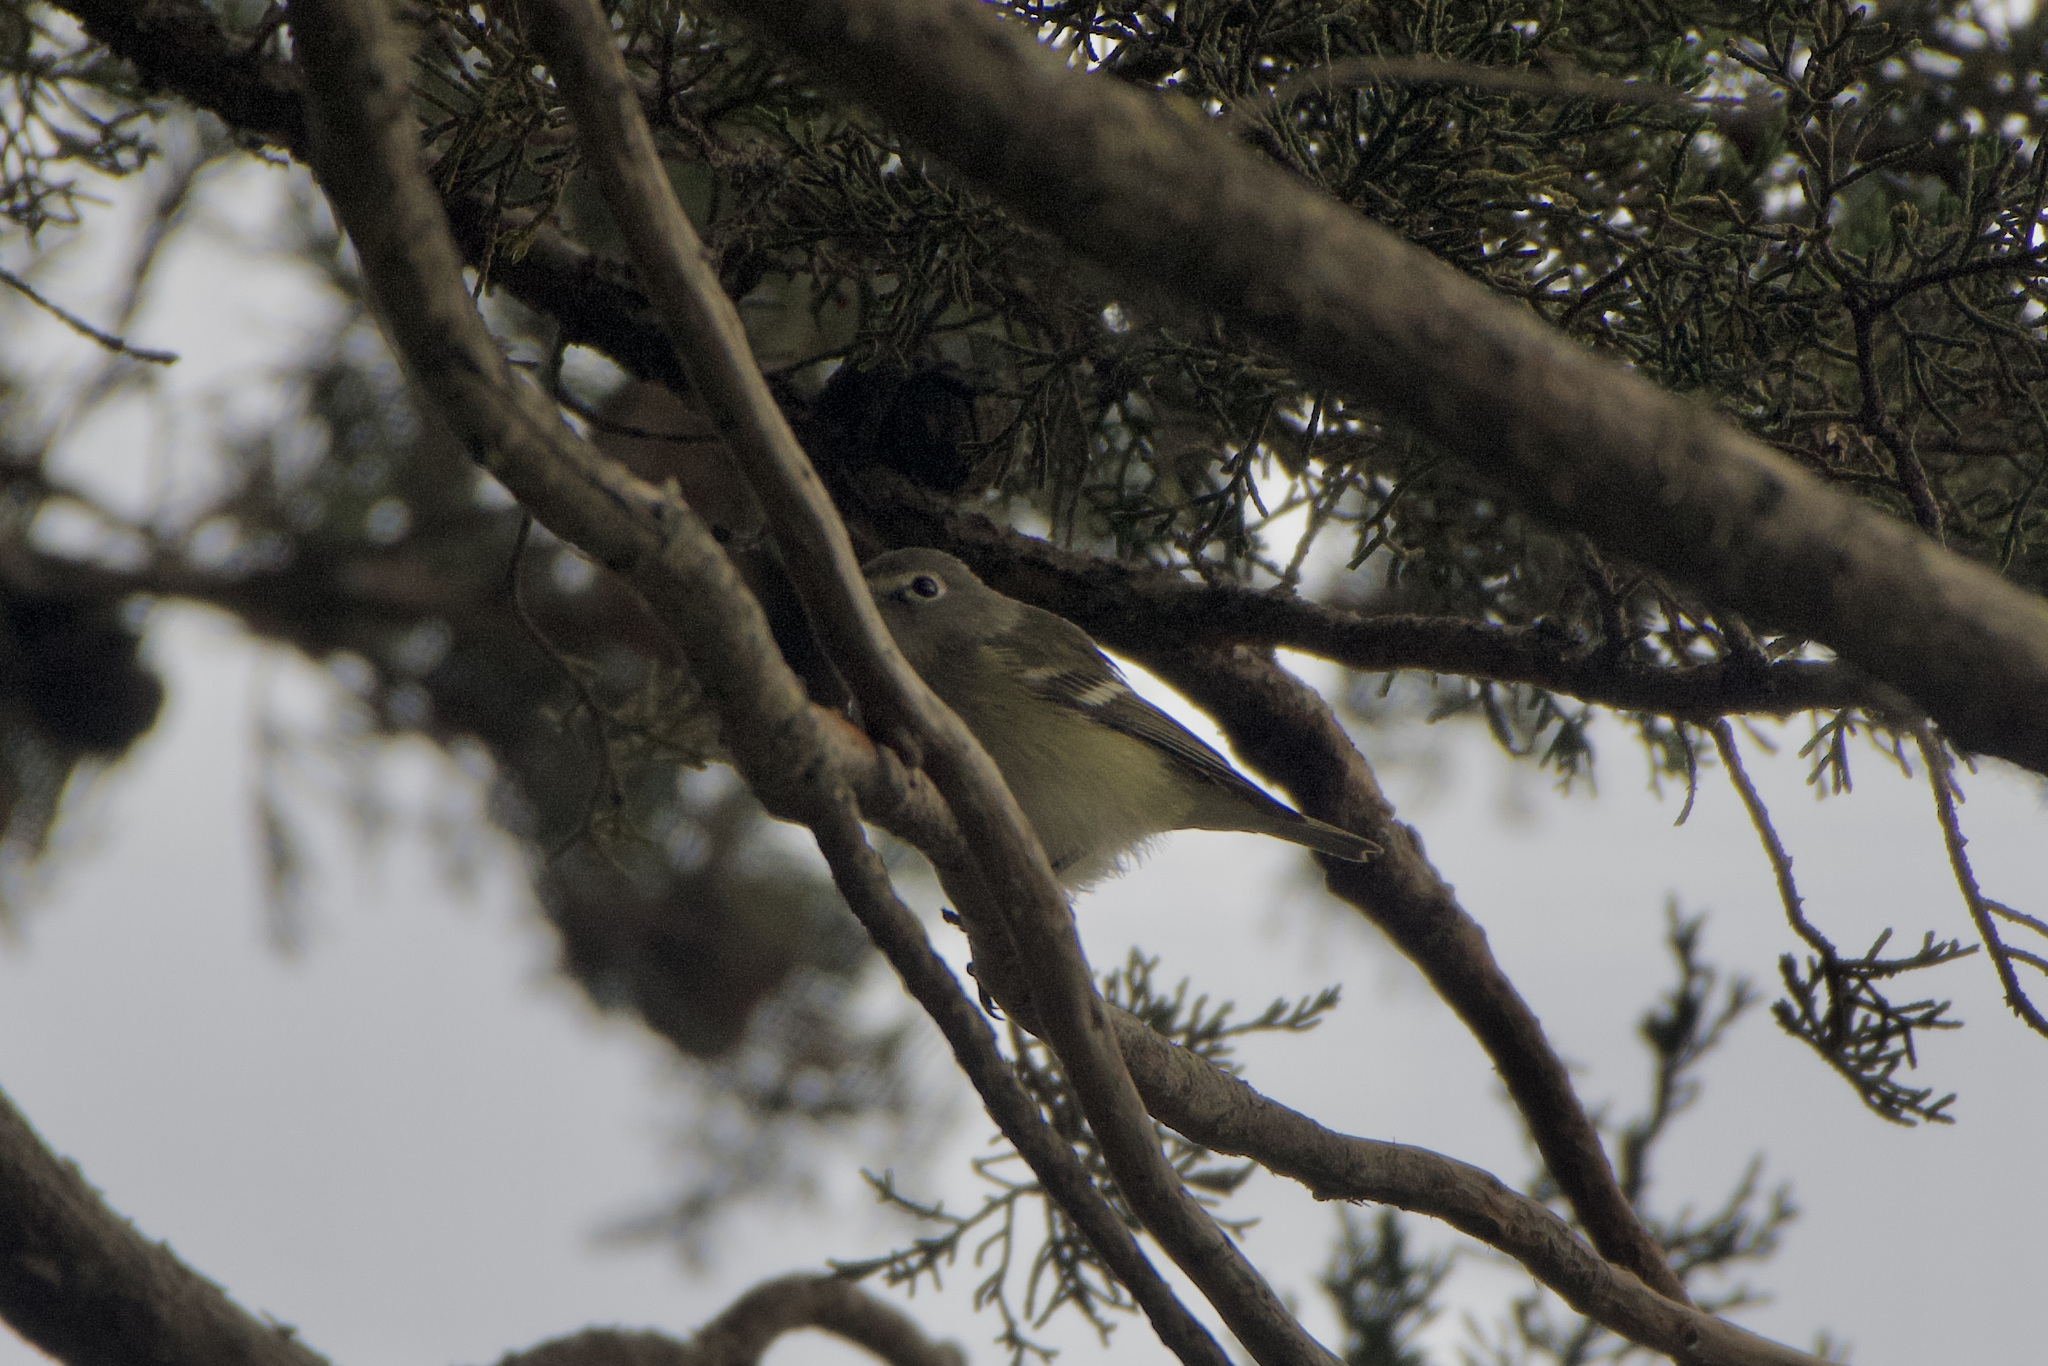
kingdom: Animalia
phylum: Chordata
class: Aves
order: Passeriformes
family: Vireonidae
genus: Vireo
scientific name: Vireo cassinii
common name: Cassin's vireo
